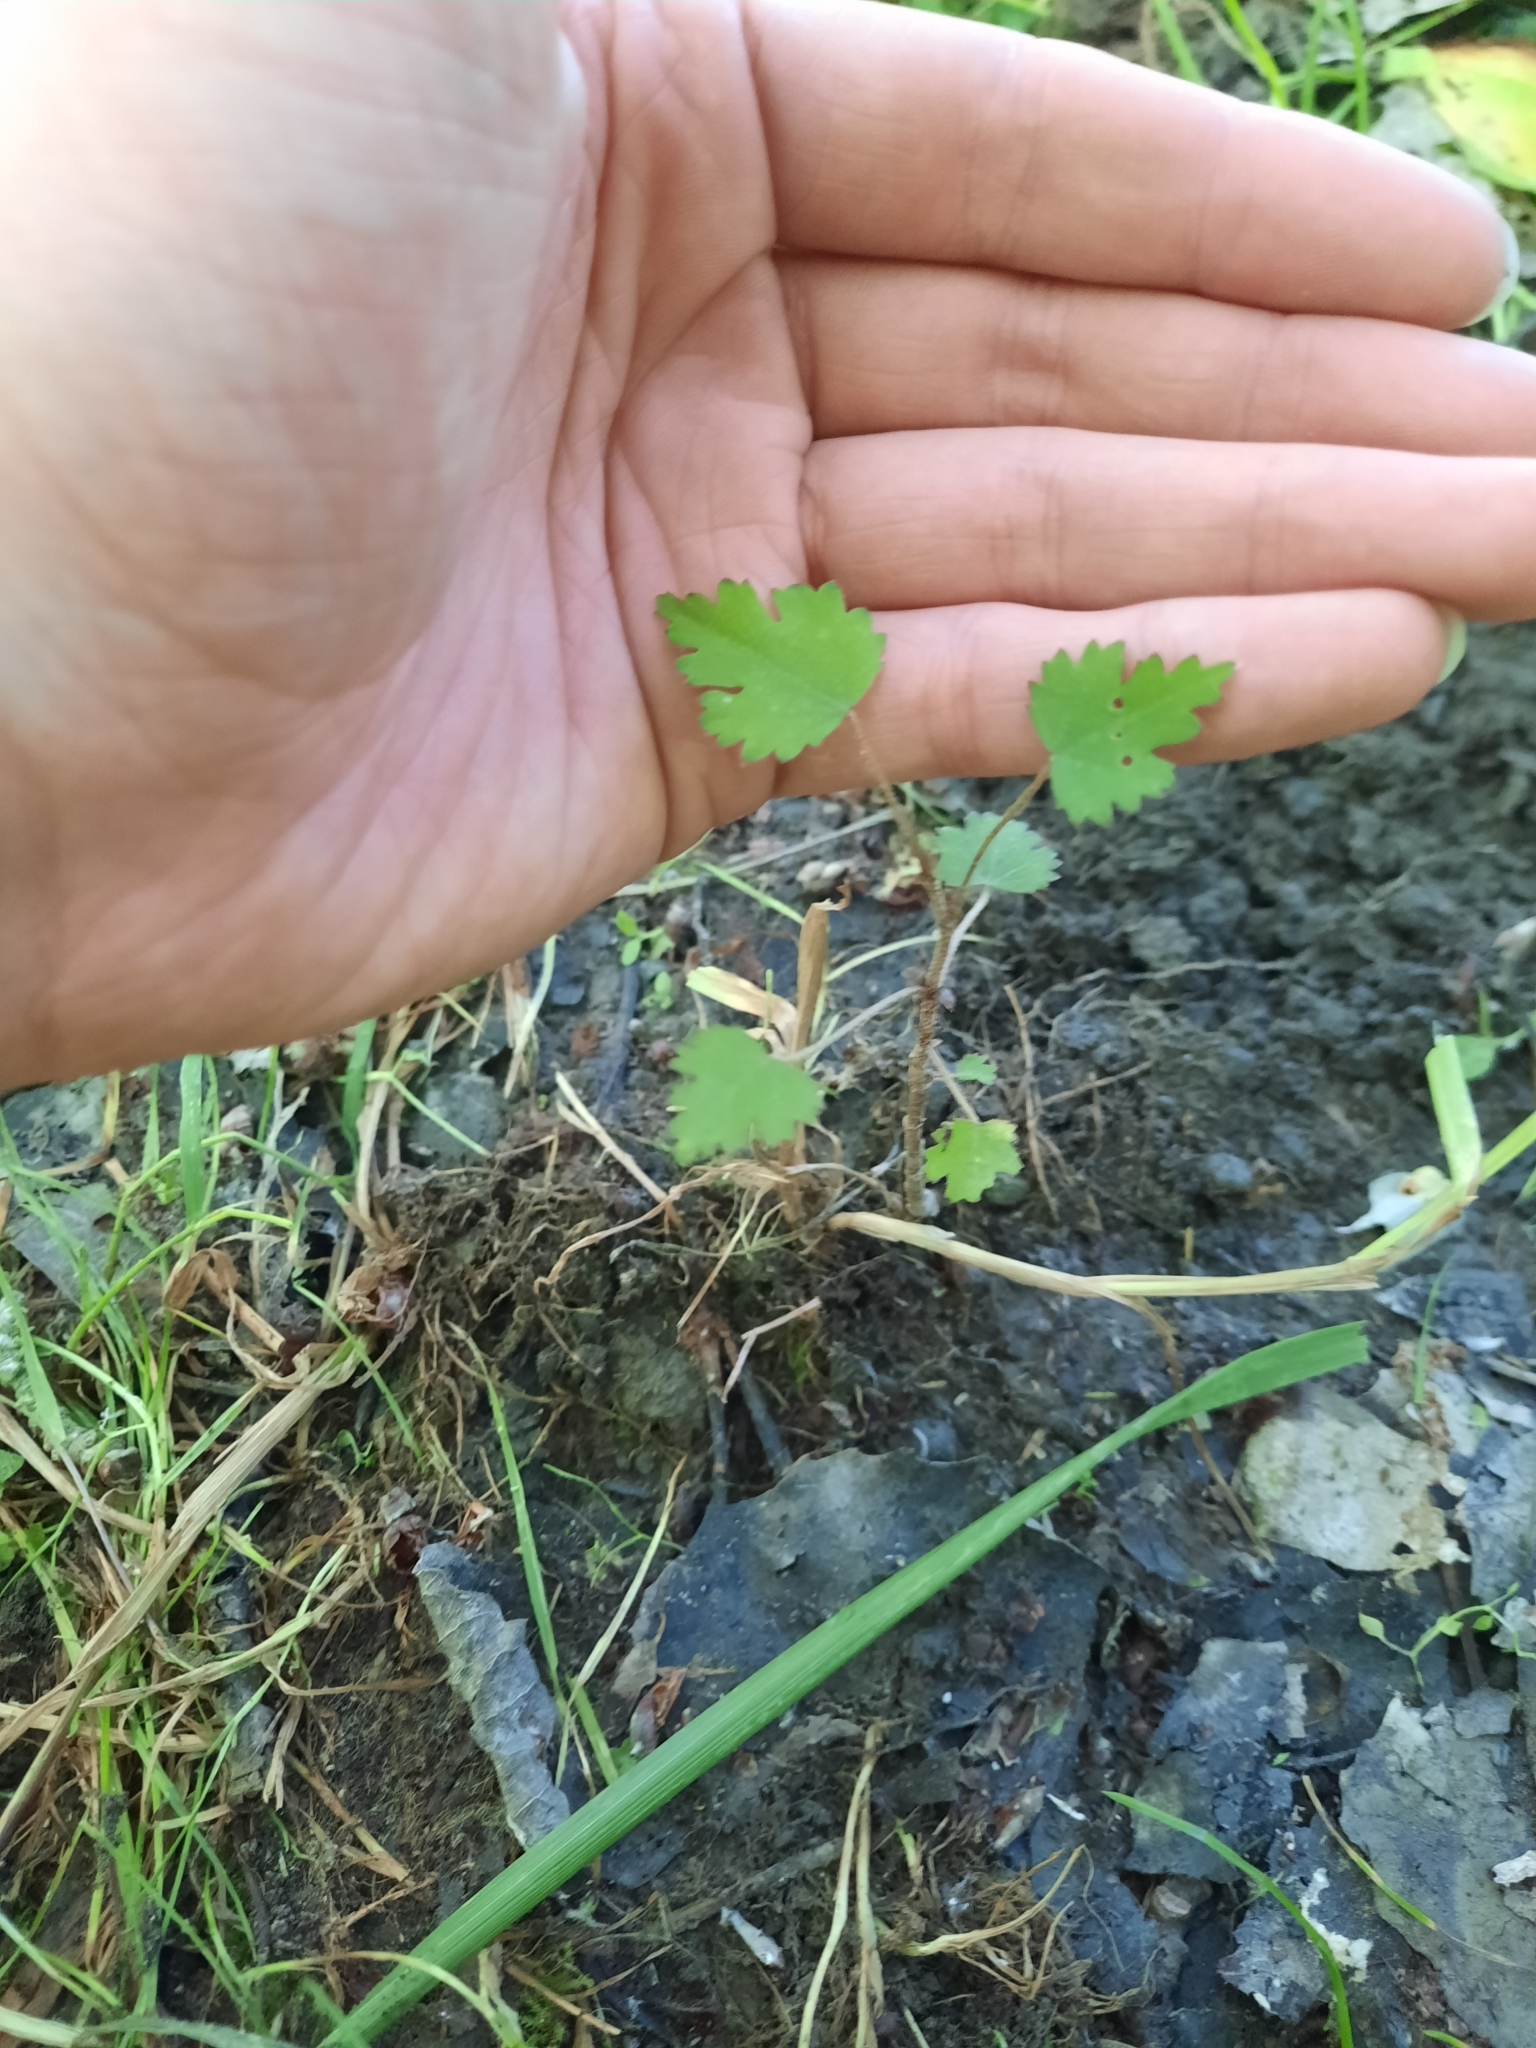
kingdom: Plantae
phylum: Tracheophyta
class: Magnoliopsida
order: Malvales
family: Malvaceae
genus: Plagianthus
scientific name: Plagianthus regius
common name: Manatu
